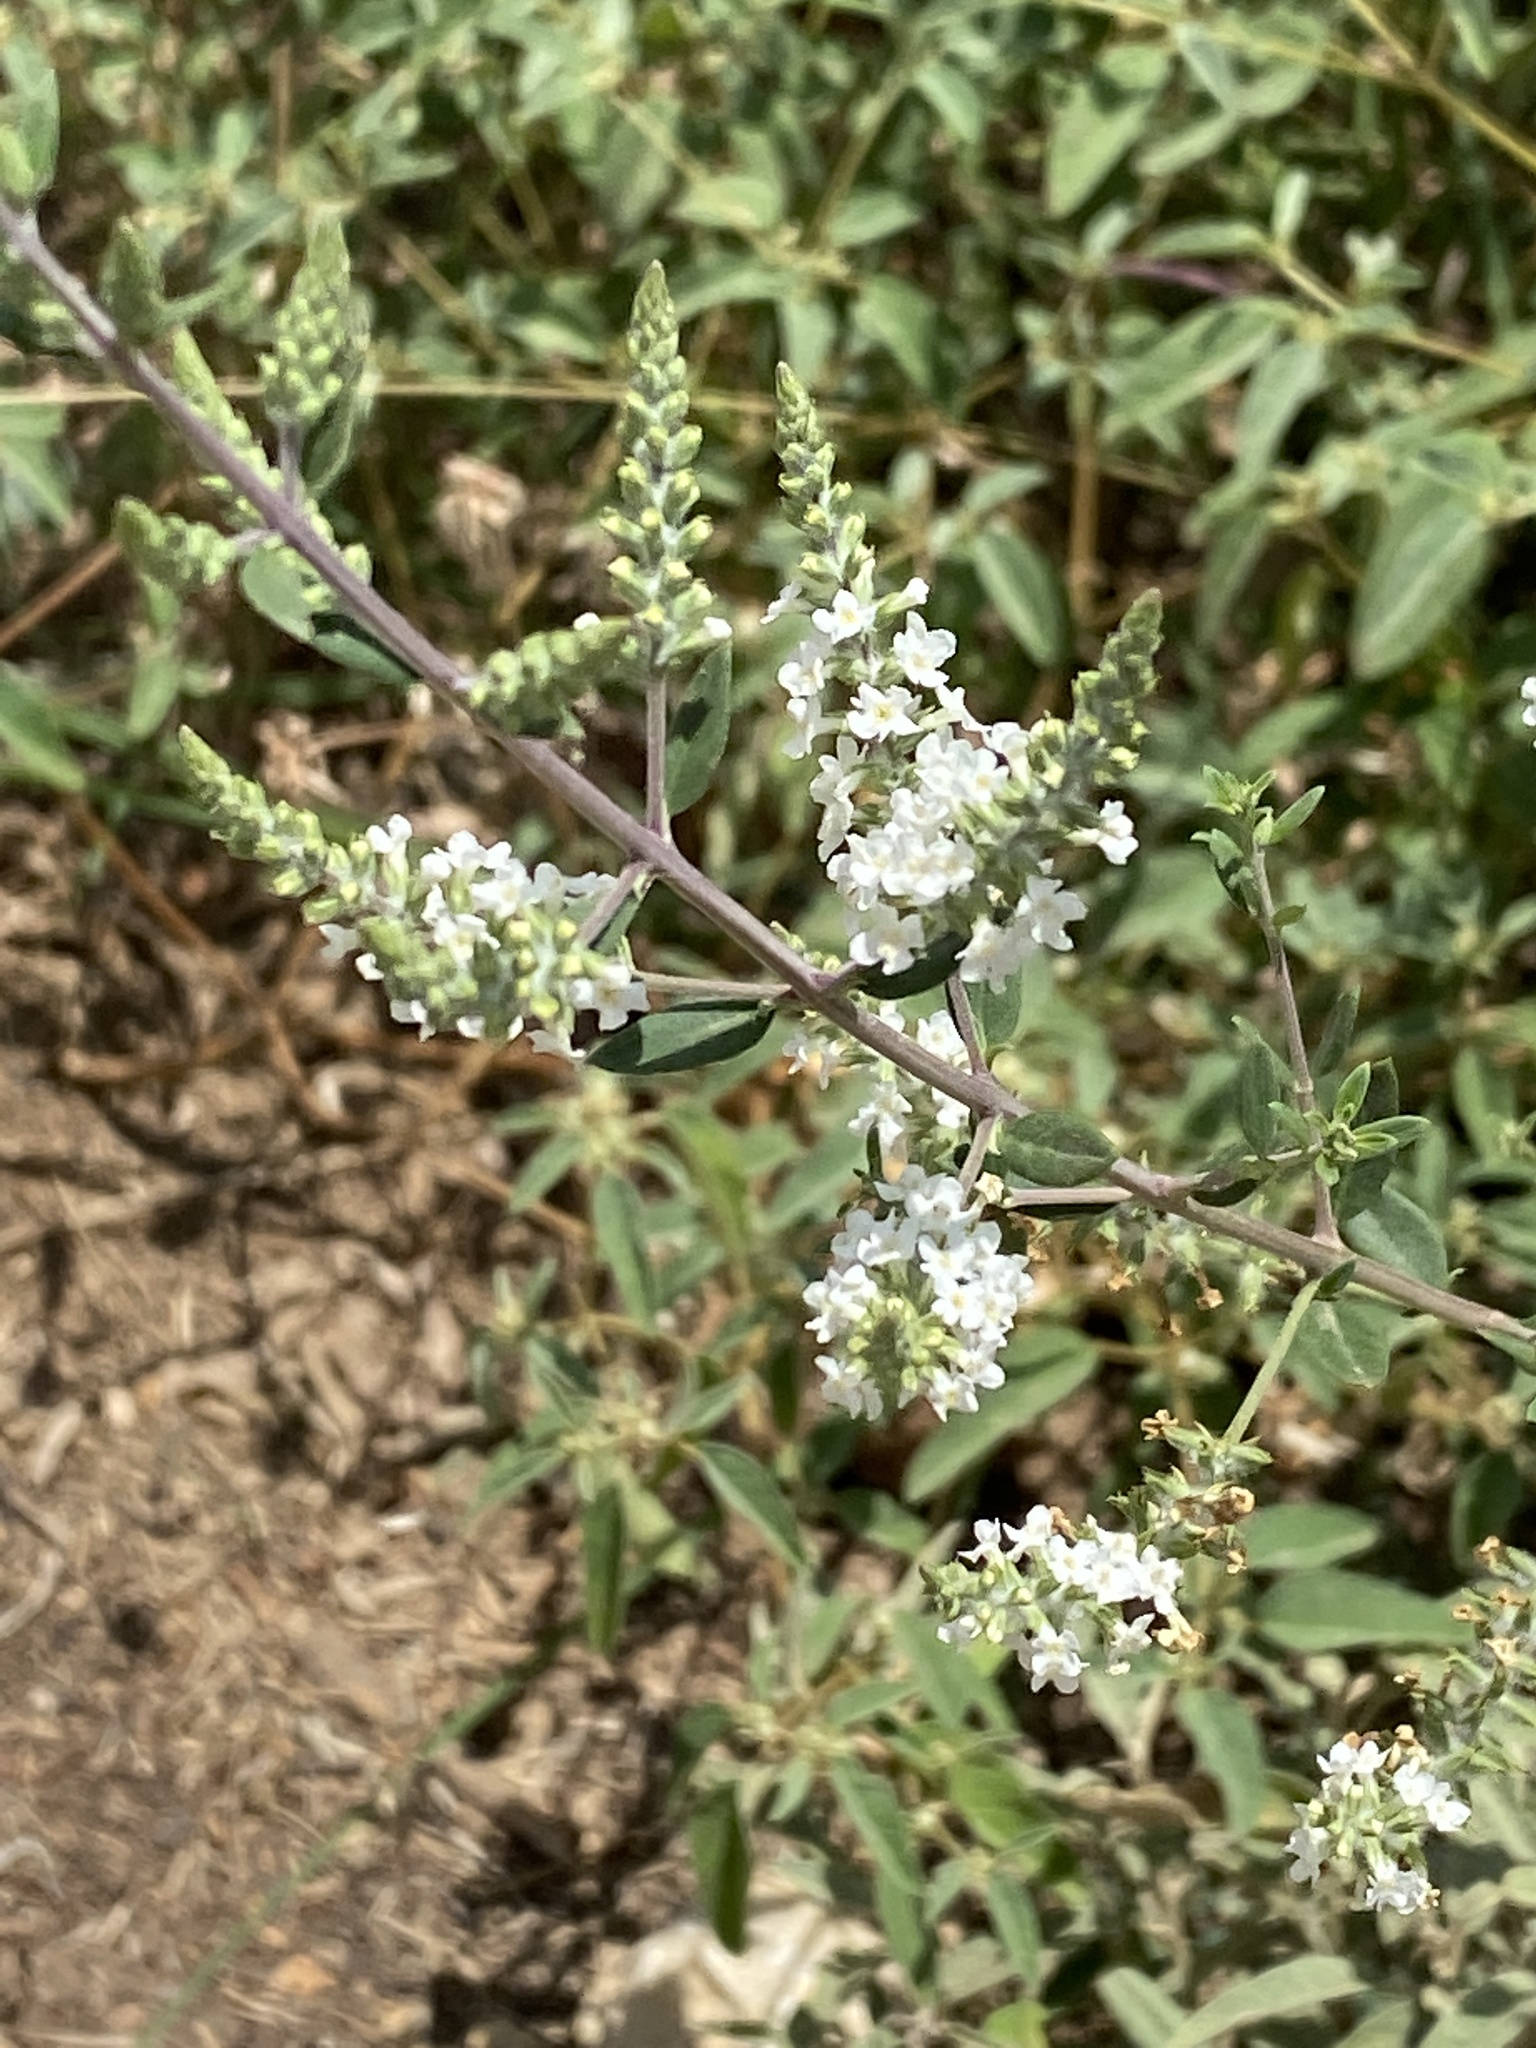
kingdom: Plantae
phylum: Tracheophyta
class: Magnoliopsida
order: Lamiales
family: Verbenaceae
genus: Aloysia
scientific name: Aloysia gratissima
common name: Common bee-brush
